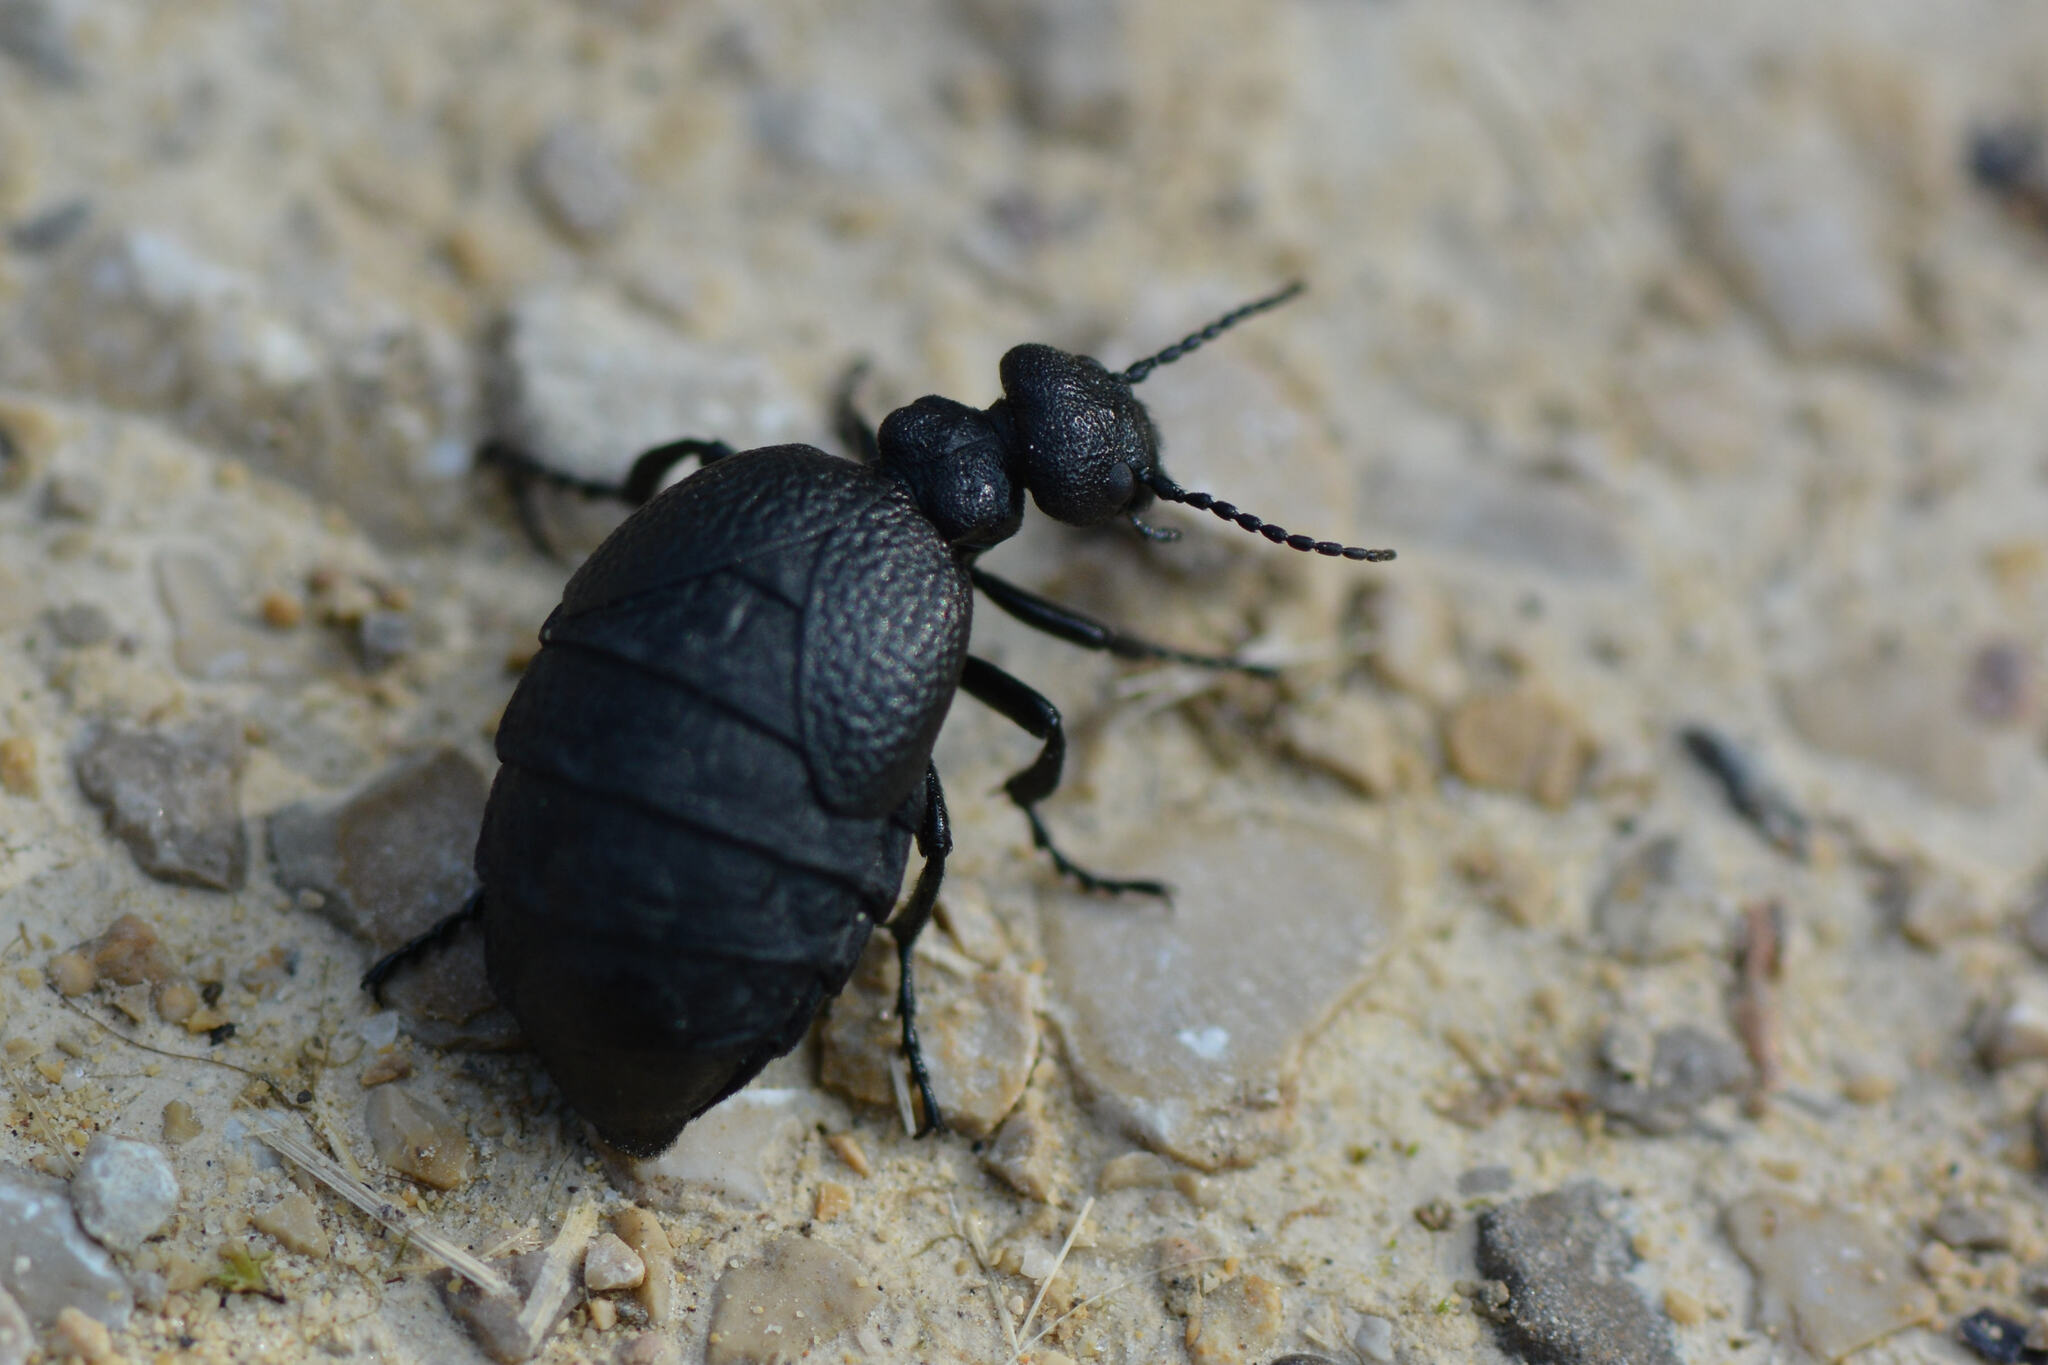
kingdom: Animalia
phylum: Arthropoda
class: Insecta
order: Coleoptera
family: Meloidae
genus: Meloe
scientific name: Meloe rugosus
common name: Rugged oil-beetle
